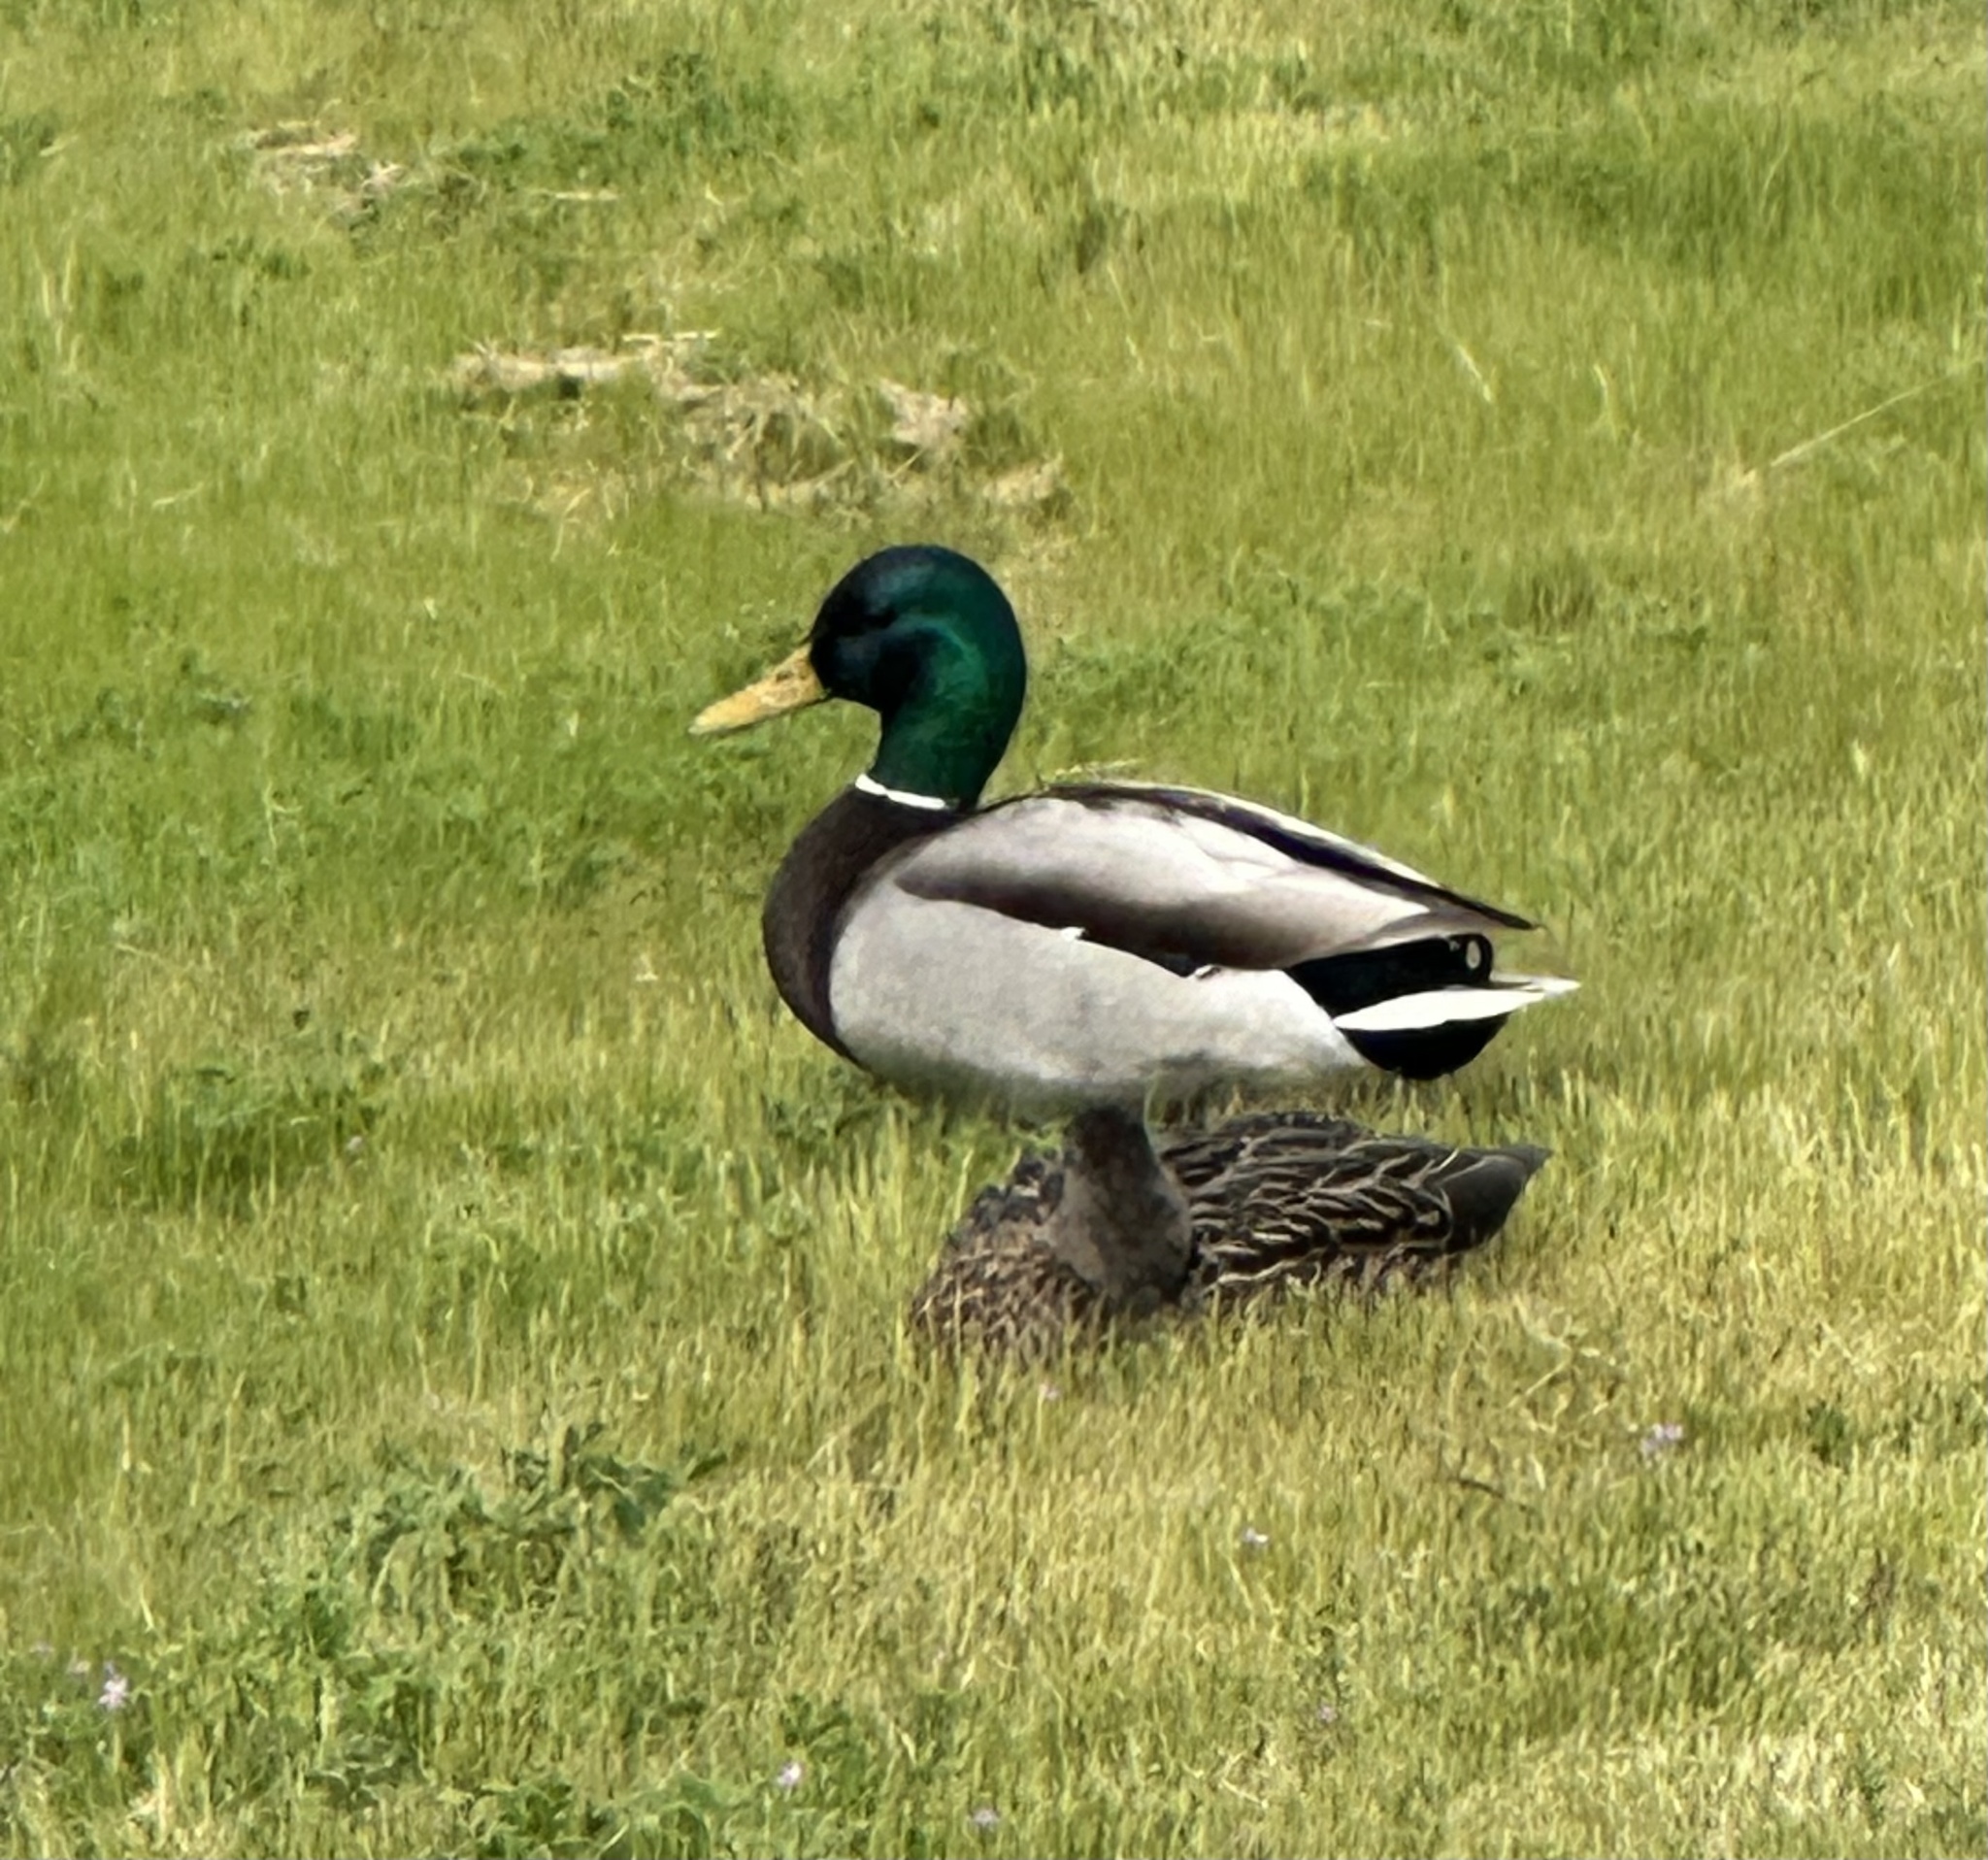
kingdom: Animalia
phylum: Chordata
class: Aves
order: Anseriformes
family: Anatidae
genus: Anas
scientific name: Anas platyrhynchos
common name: Mallard
